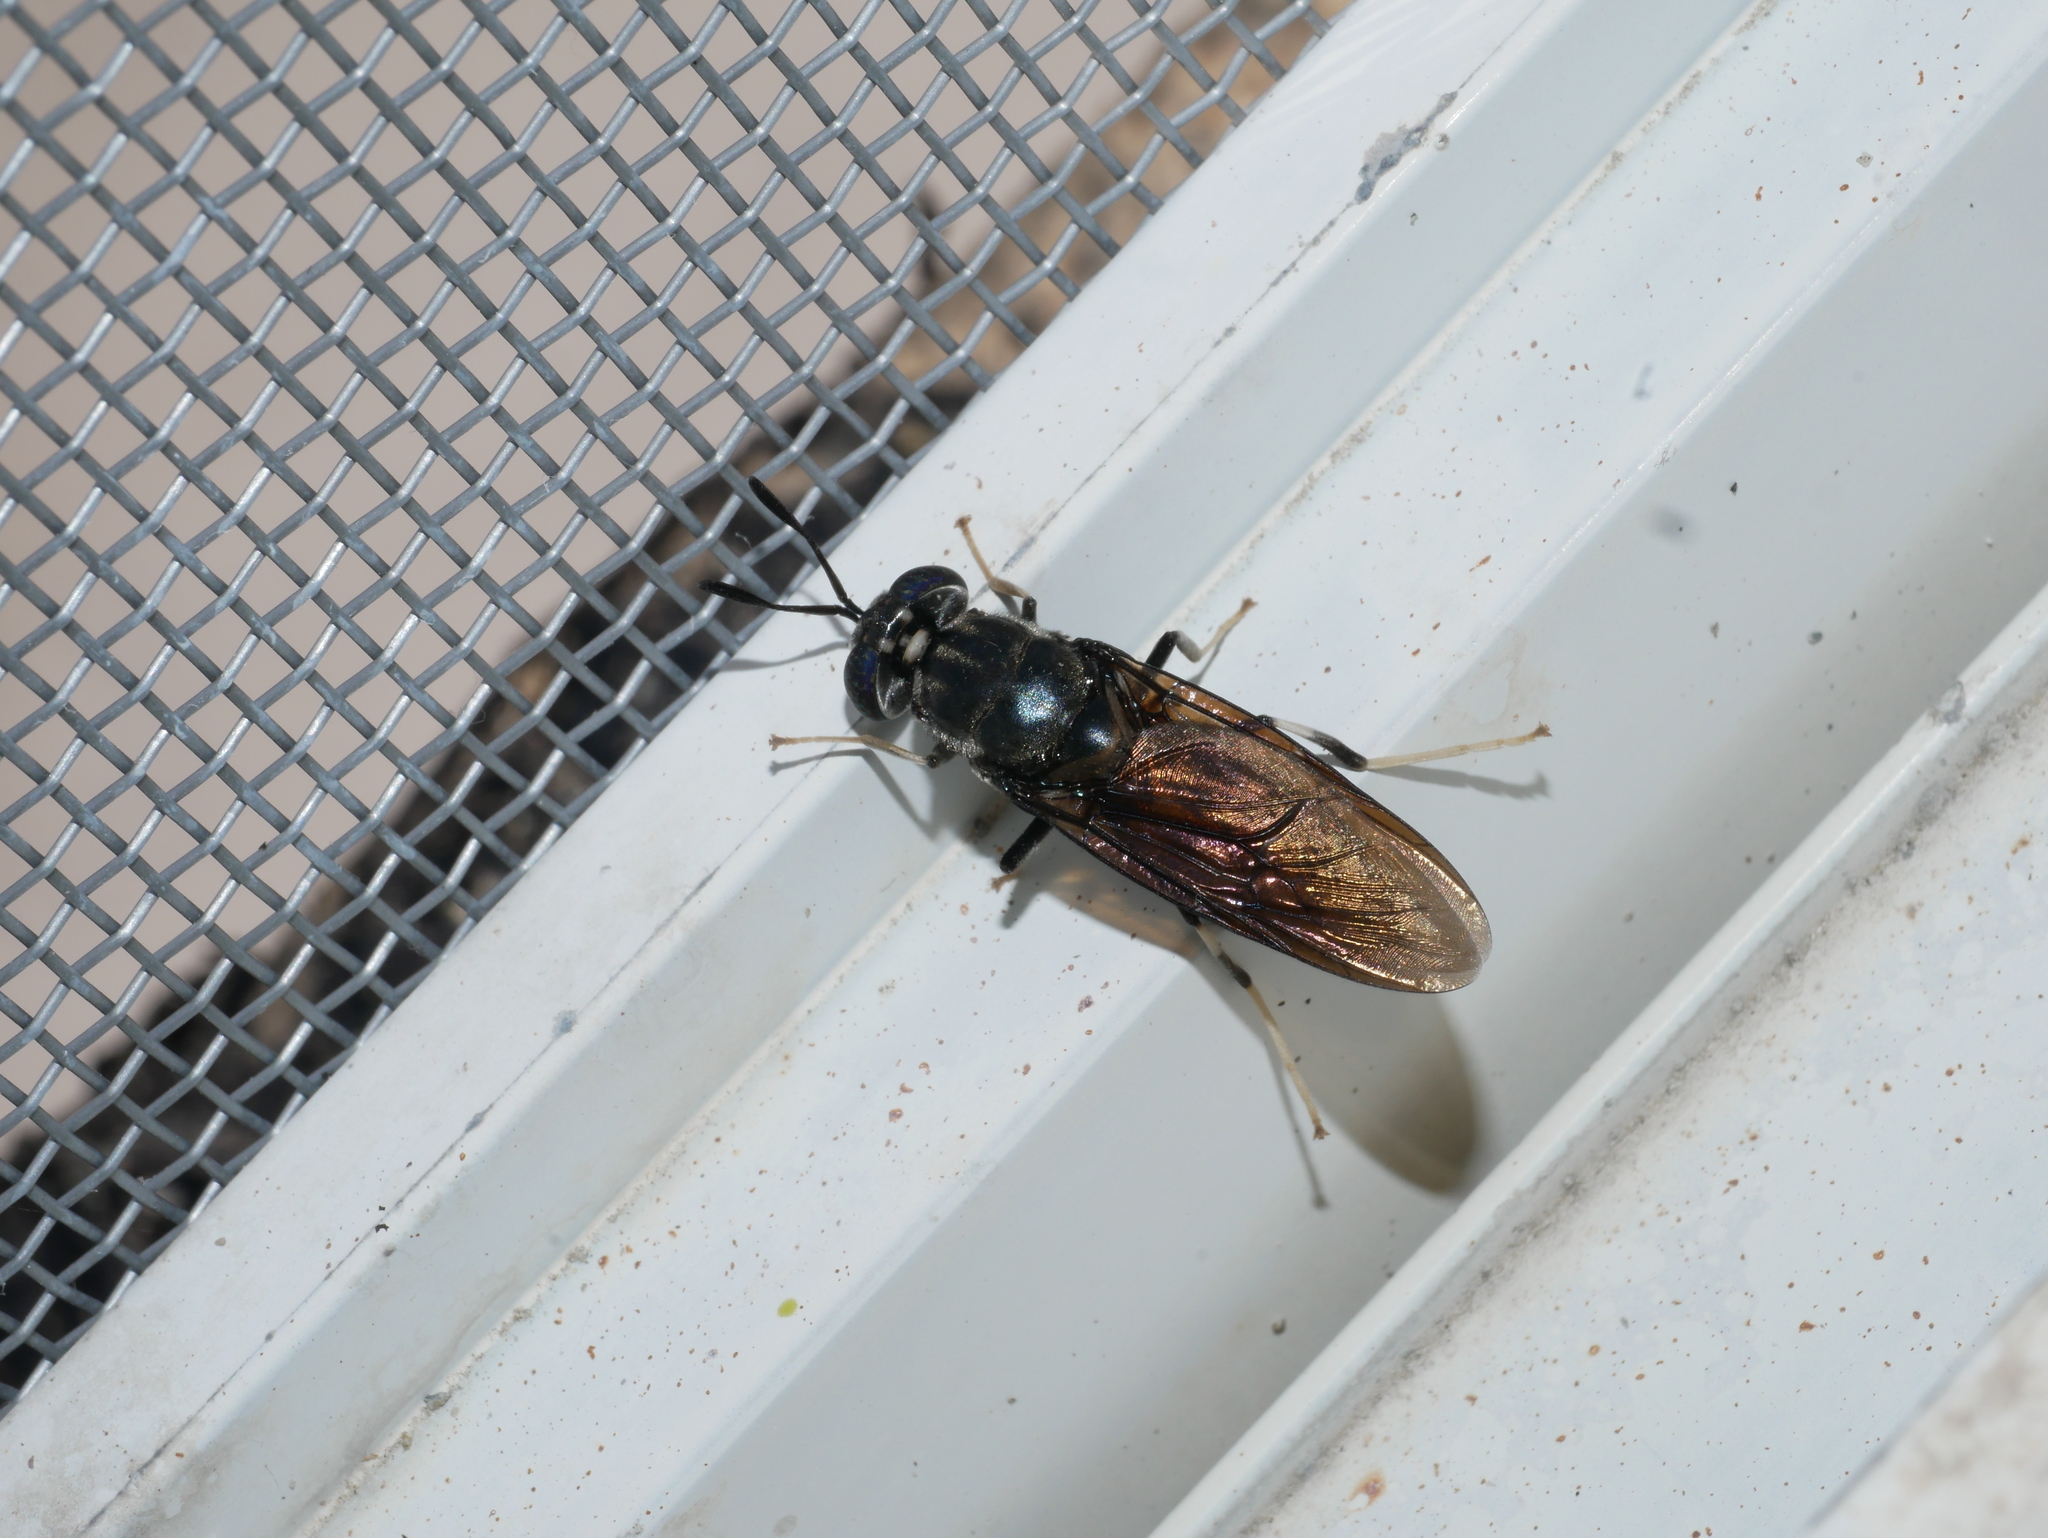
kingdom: Animalia
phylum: Arthropoda
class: Insecta
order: Diptera
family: Stratiomyidae
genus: Hermetia
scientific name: Hermetia illucens
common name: Black soldier fly
